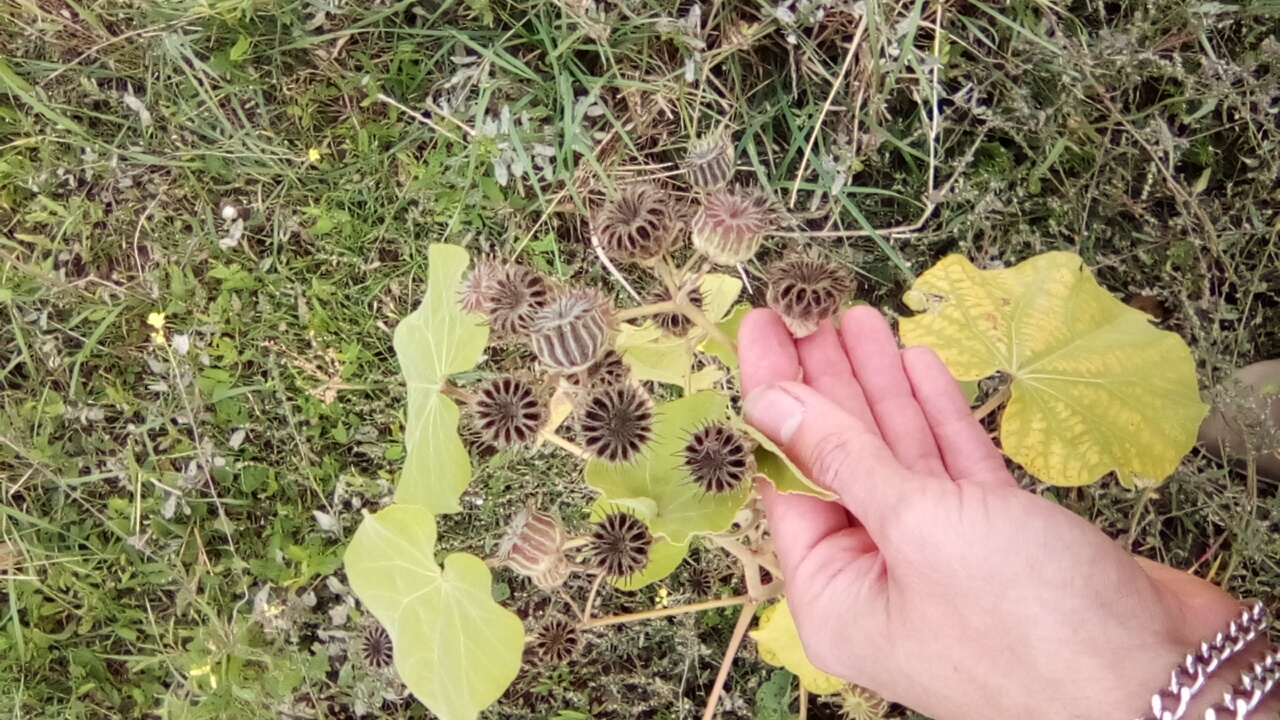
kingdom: Plantae
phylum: Tracheophyta
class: Magnoliopsida
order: Malvales
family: Malvaceae
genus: Abutilon
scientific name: Abutilon theophrasti
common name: Velvetleaf
